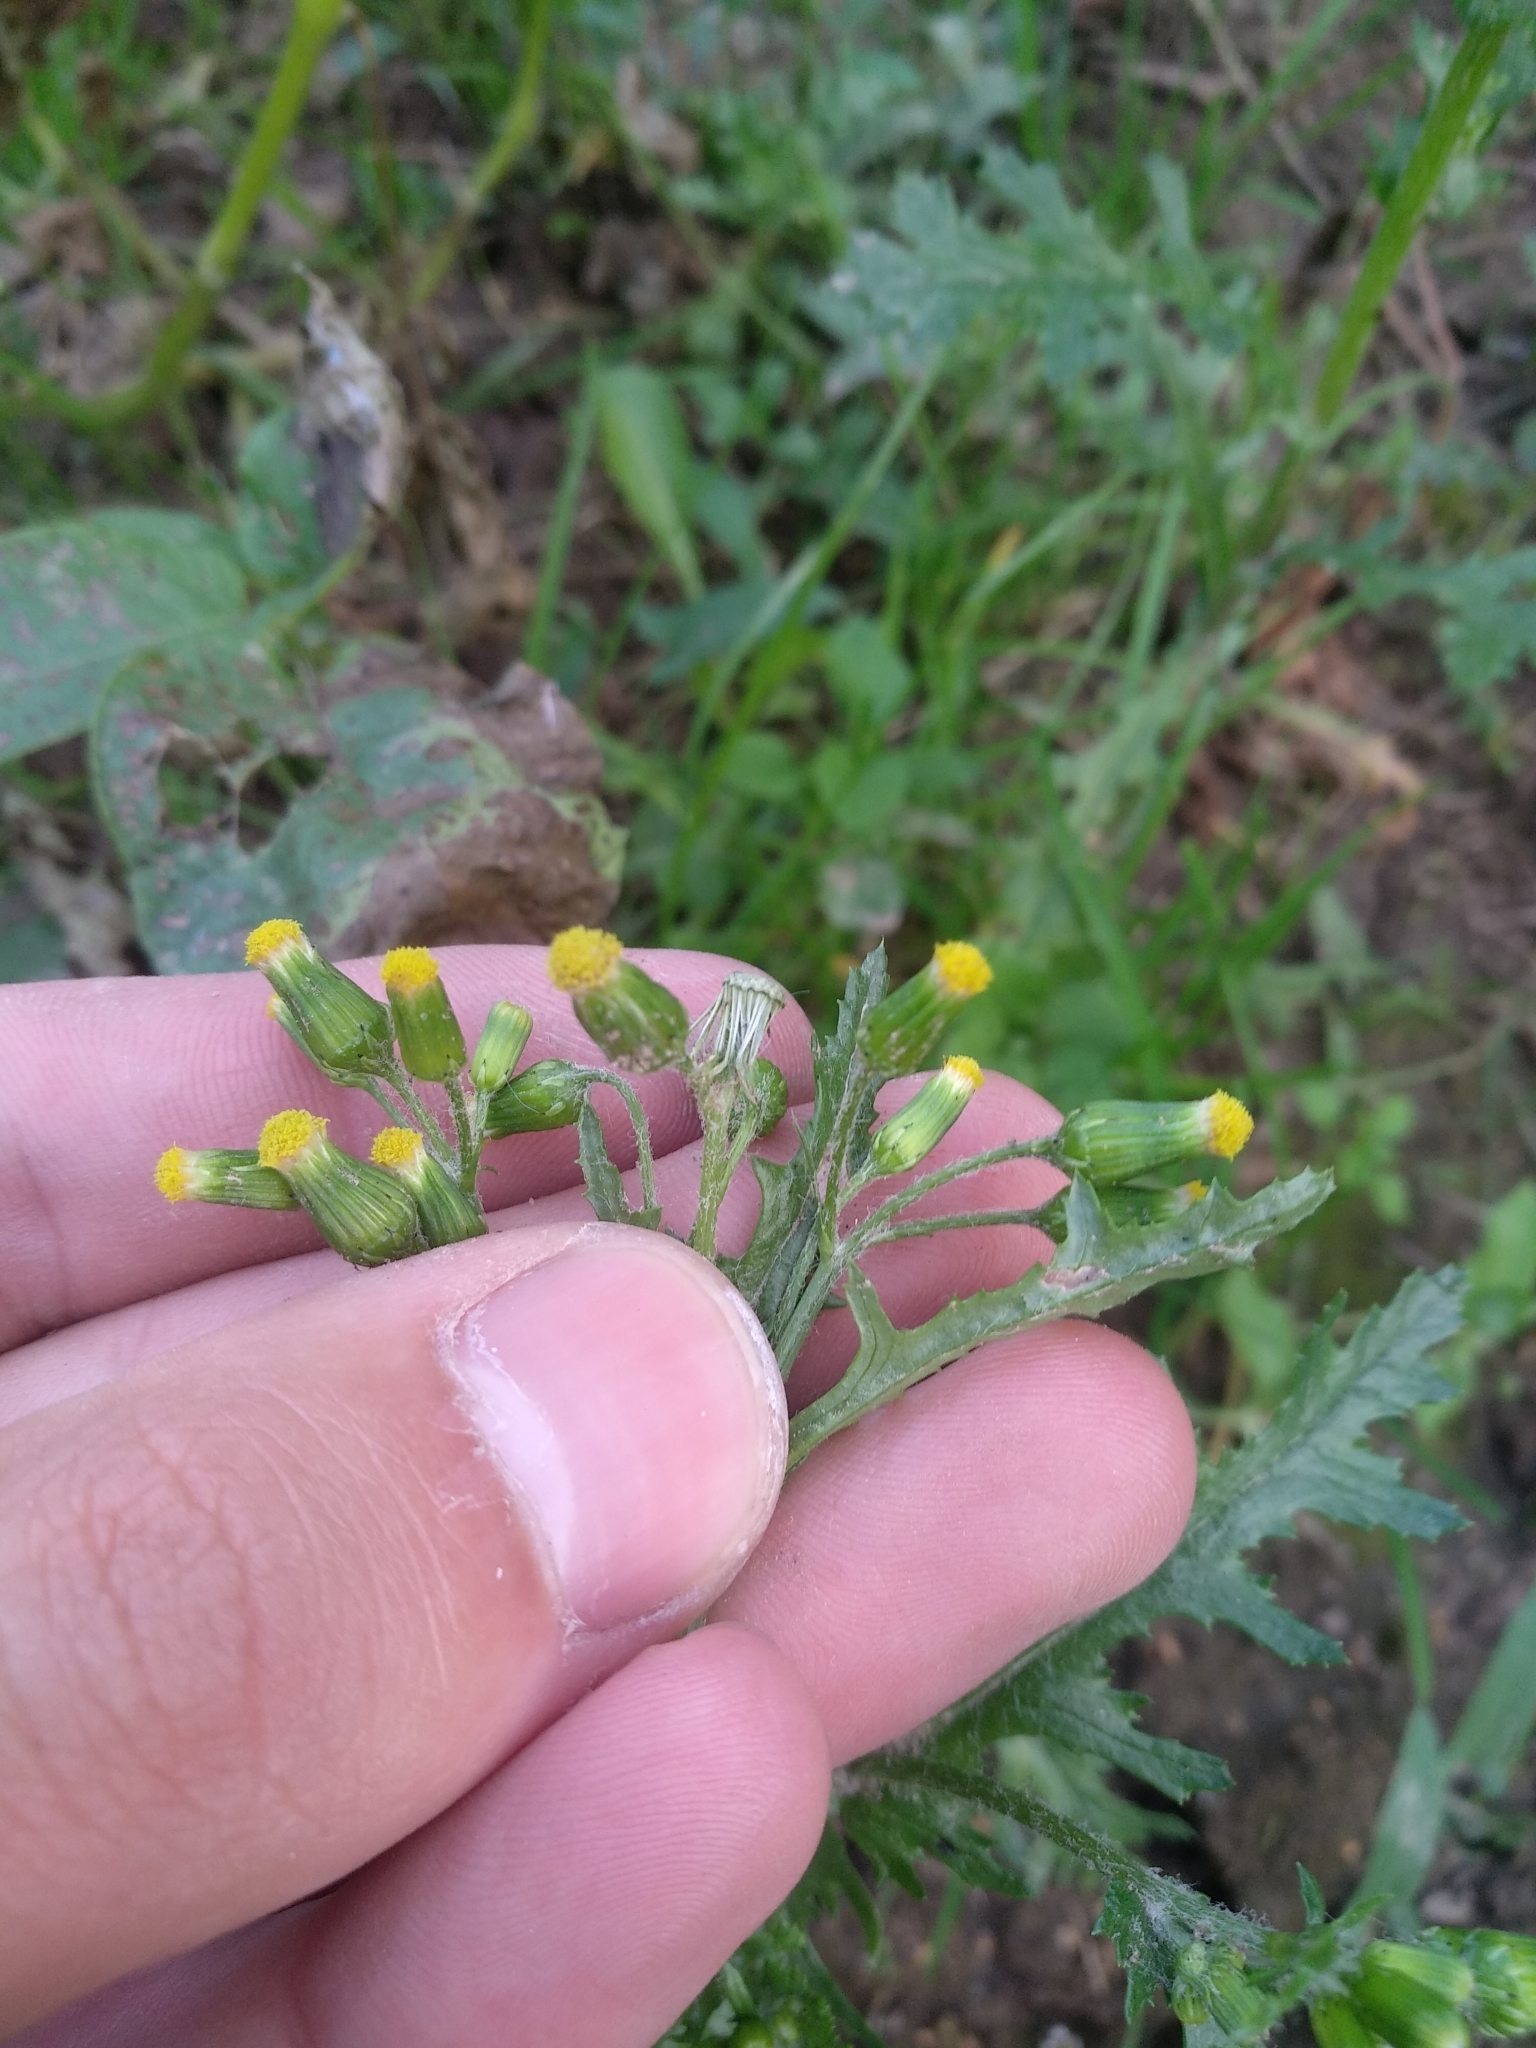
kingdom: Plantae
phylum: Tracheophyta
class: Magnoliopsida
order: Asterales
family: Asteraceae
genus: Senecio
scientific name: Senecio vulgaris
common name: Old-man-in-the-spring
